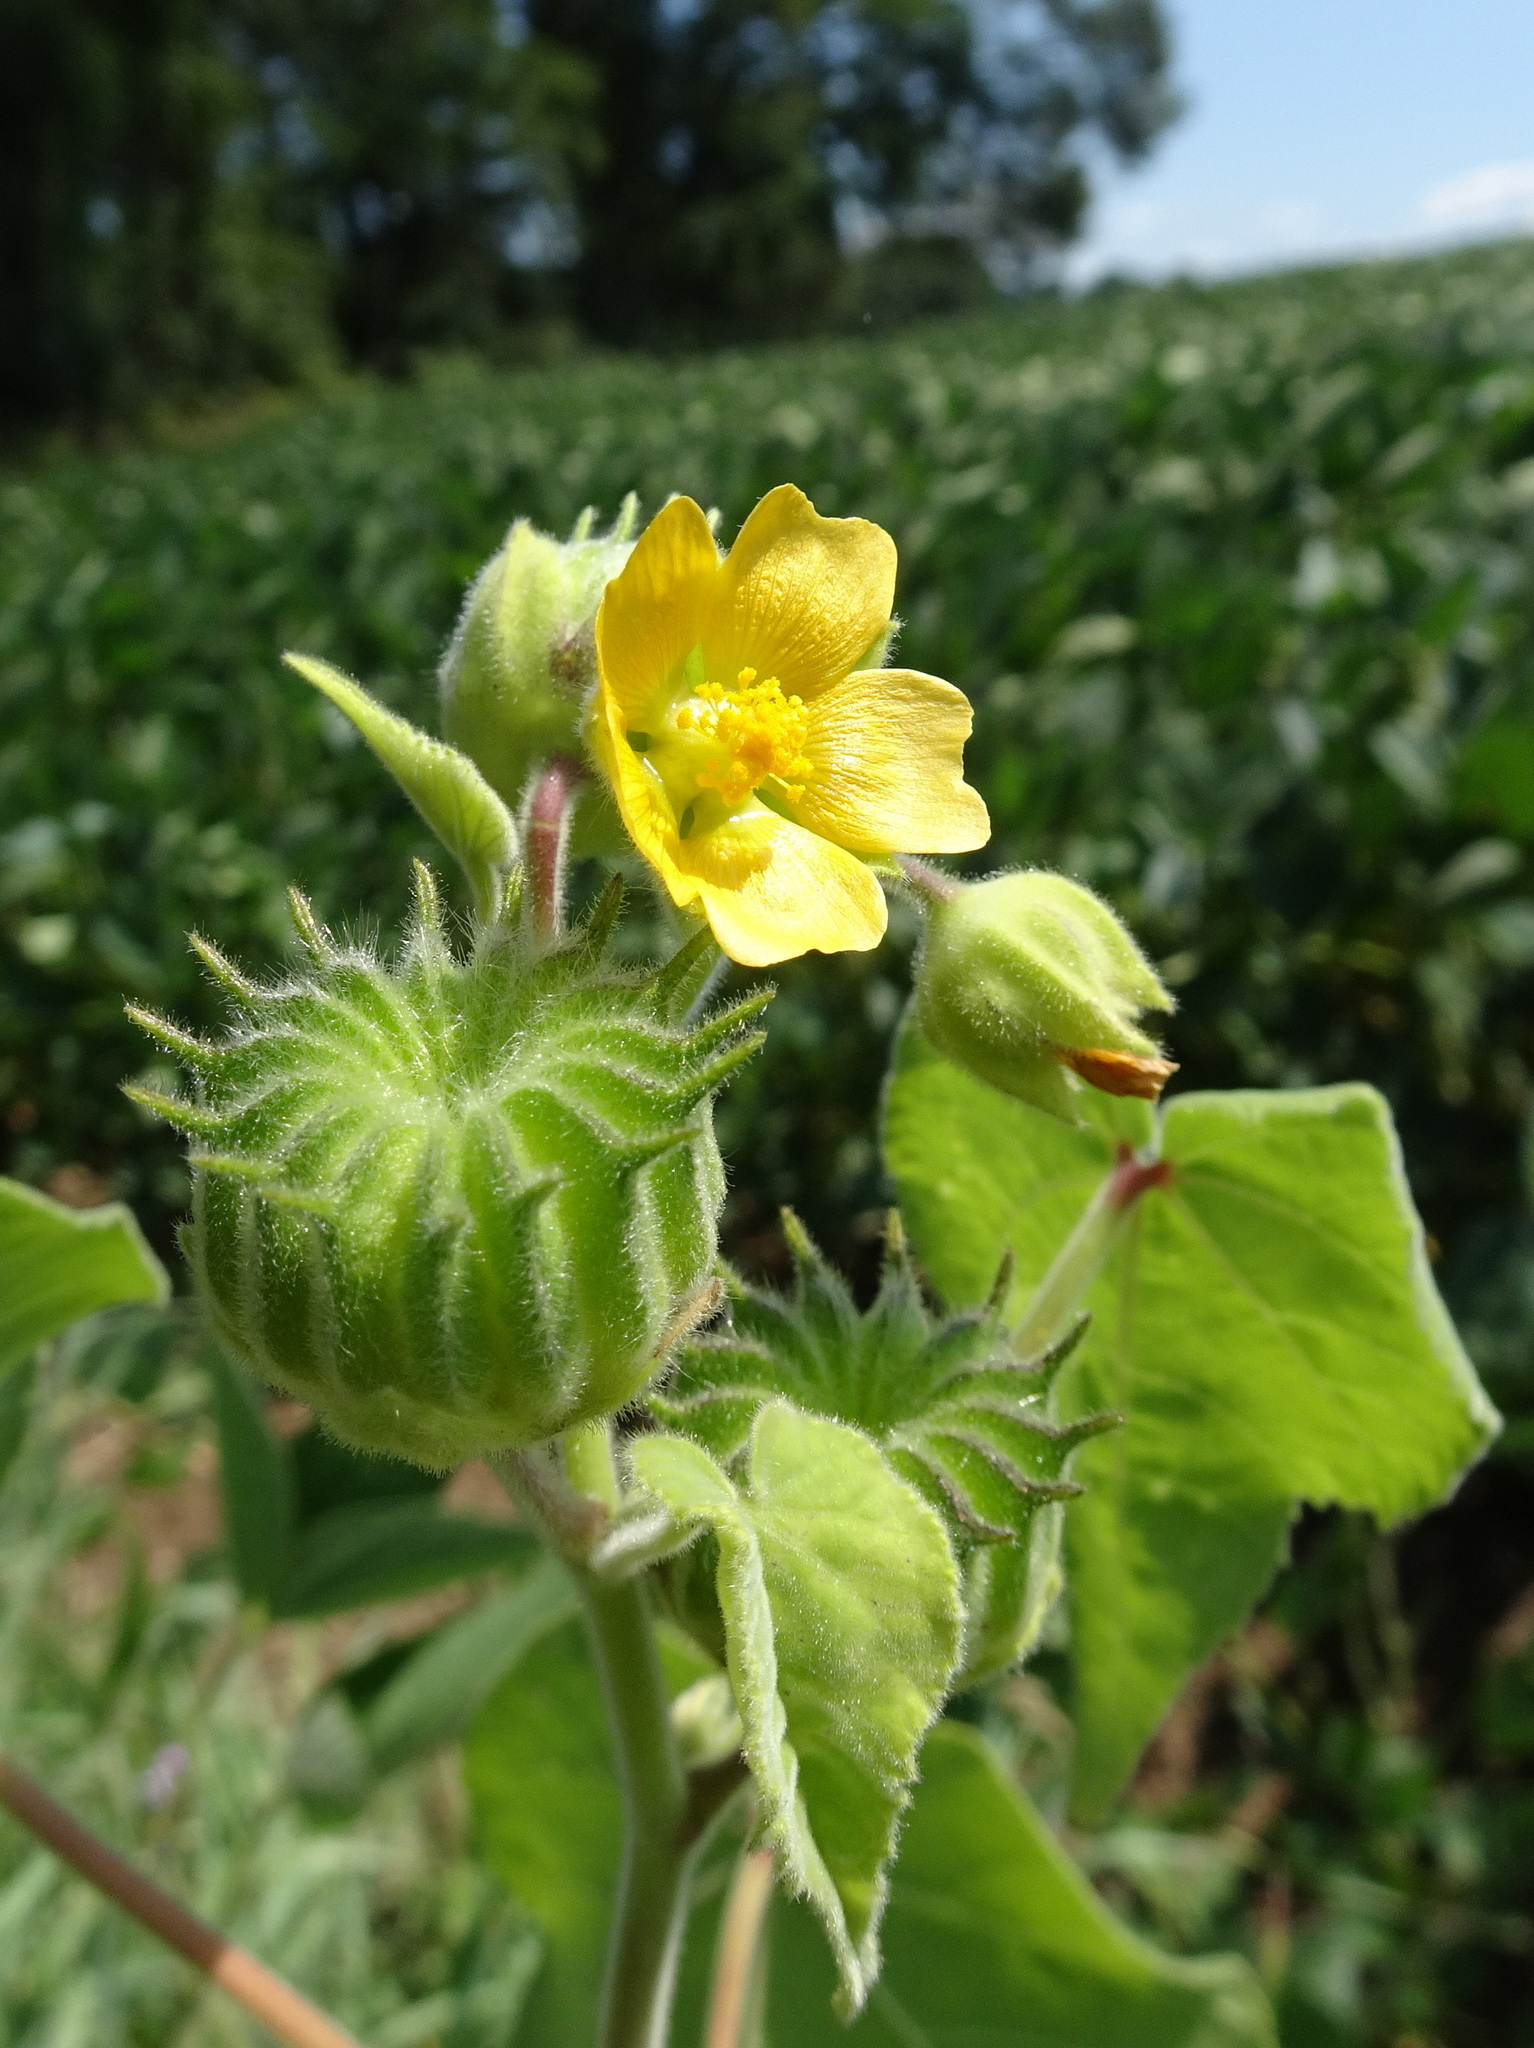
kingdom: Plantae
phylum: Tracheophyta
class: Magnoliopsida
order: Malvales
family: Malvaceae
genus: Abutilon
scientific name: Abutilon theophrasti
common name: Velvetleaf
